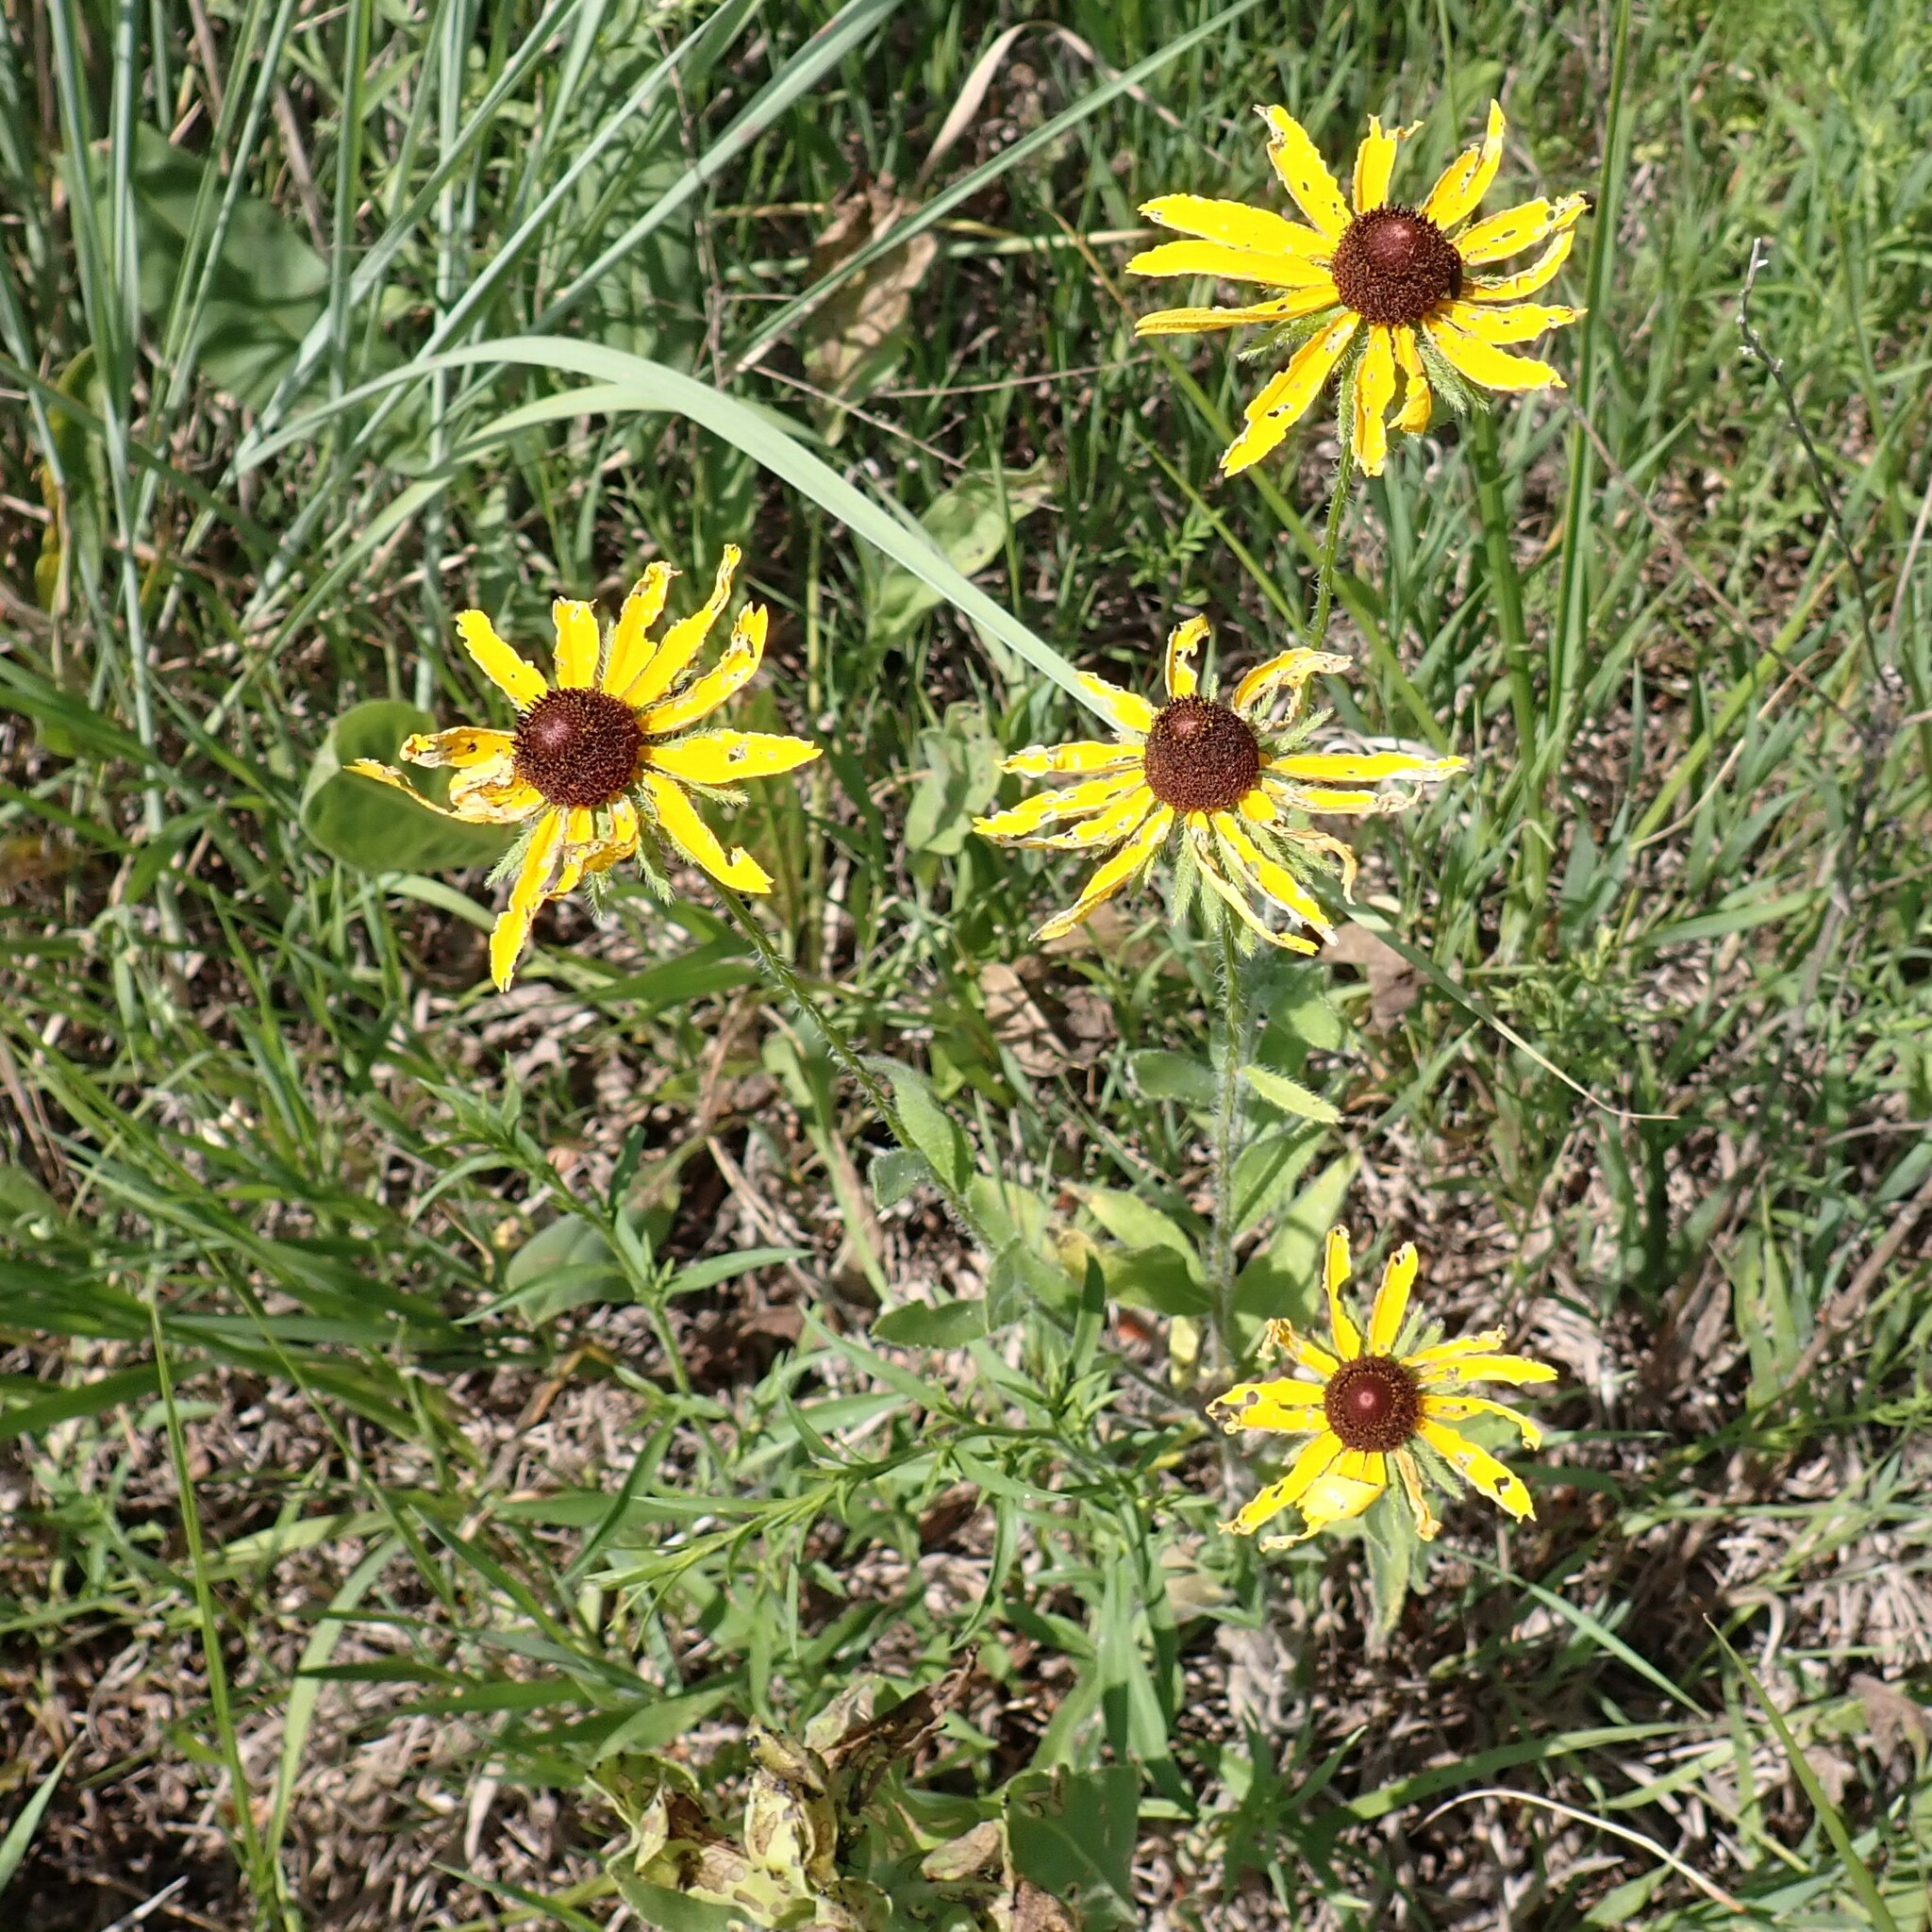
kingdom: Plantae
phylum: Tracheophyta
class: Magnoliopsida
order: Asterales
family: Asteraceae
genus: Rudbeckia
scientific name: Rudbeckia hirta
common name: Black-eyed-susan
